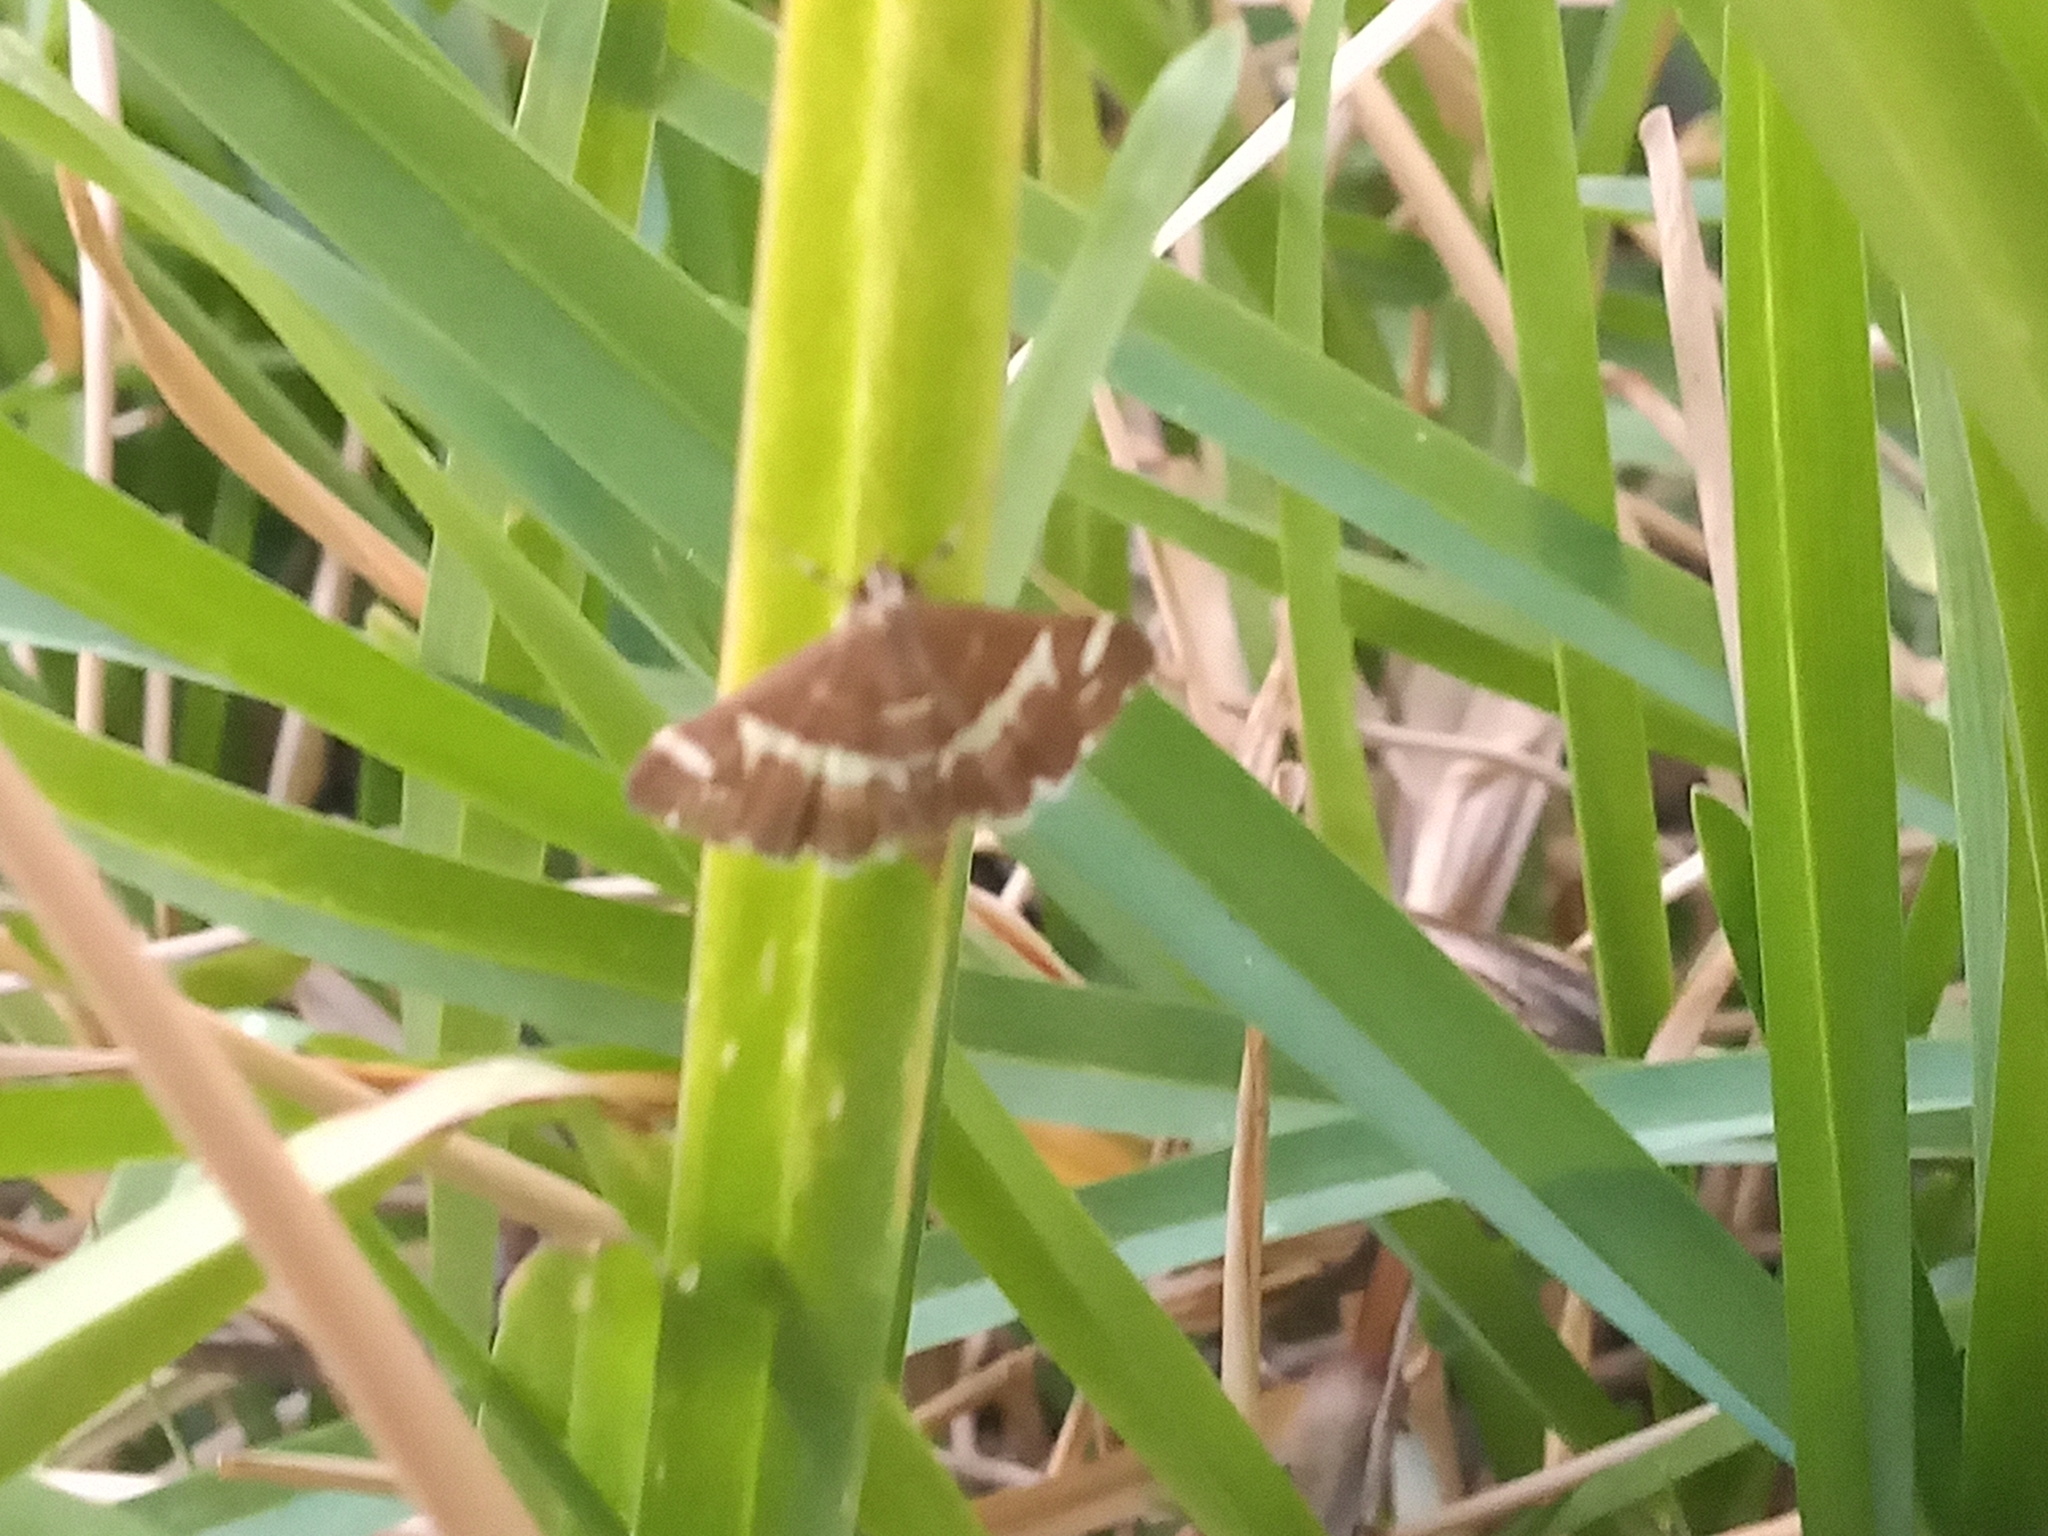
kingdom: Animalia
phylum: Arthropoda
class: Insecta
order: Lepidoptera
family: Crambidae
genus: Spoladea
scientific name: Spoladea recurvalis
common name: Beet webworm moth
